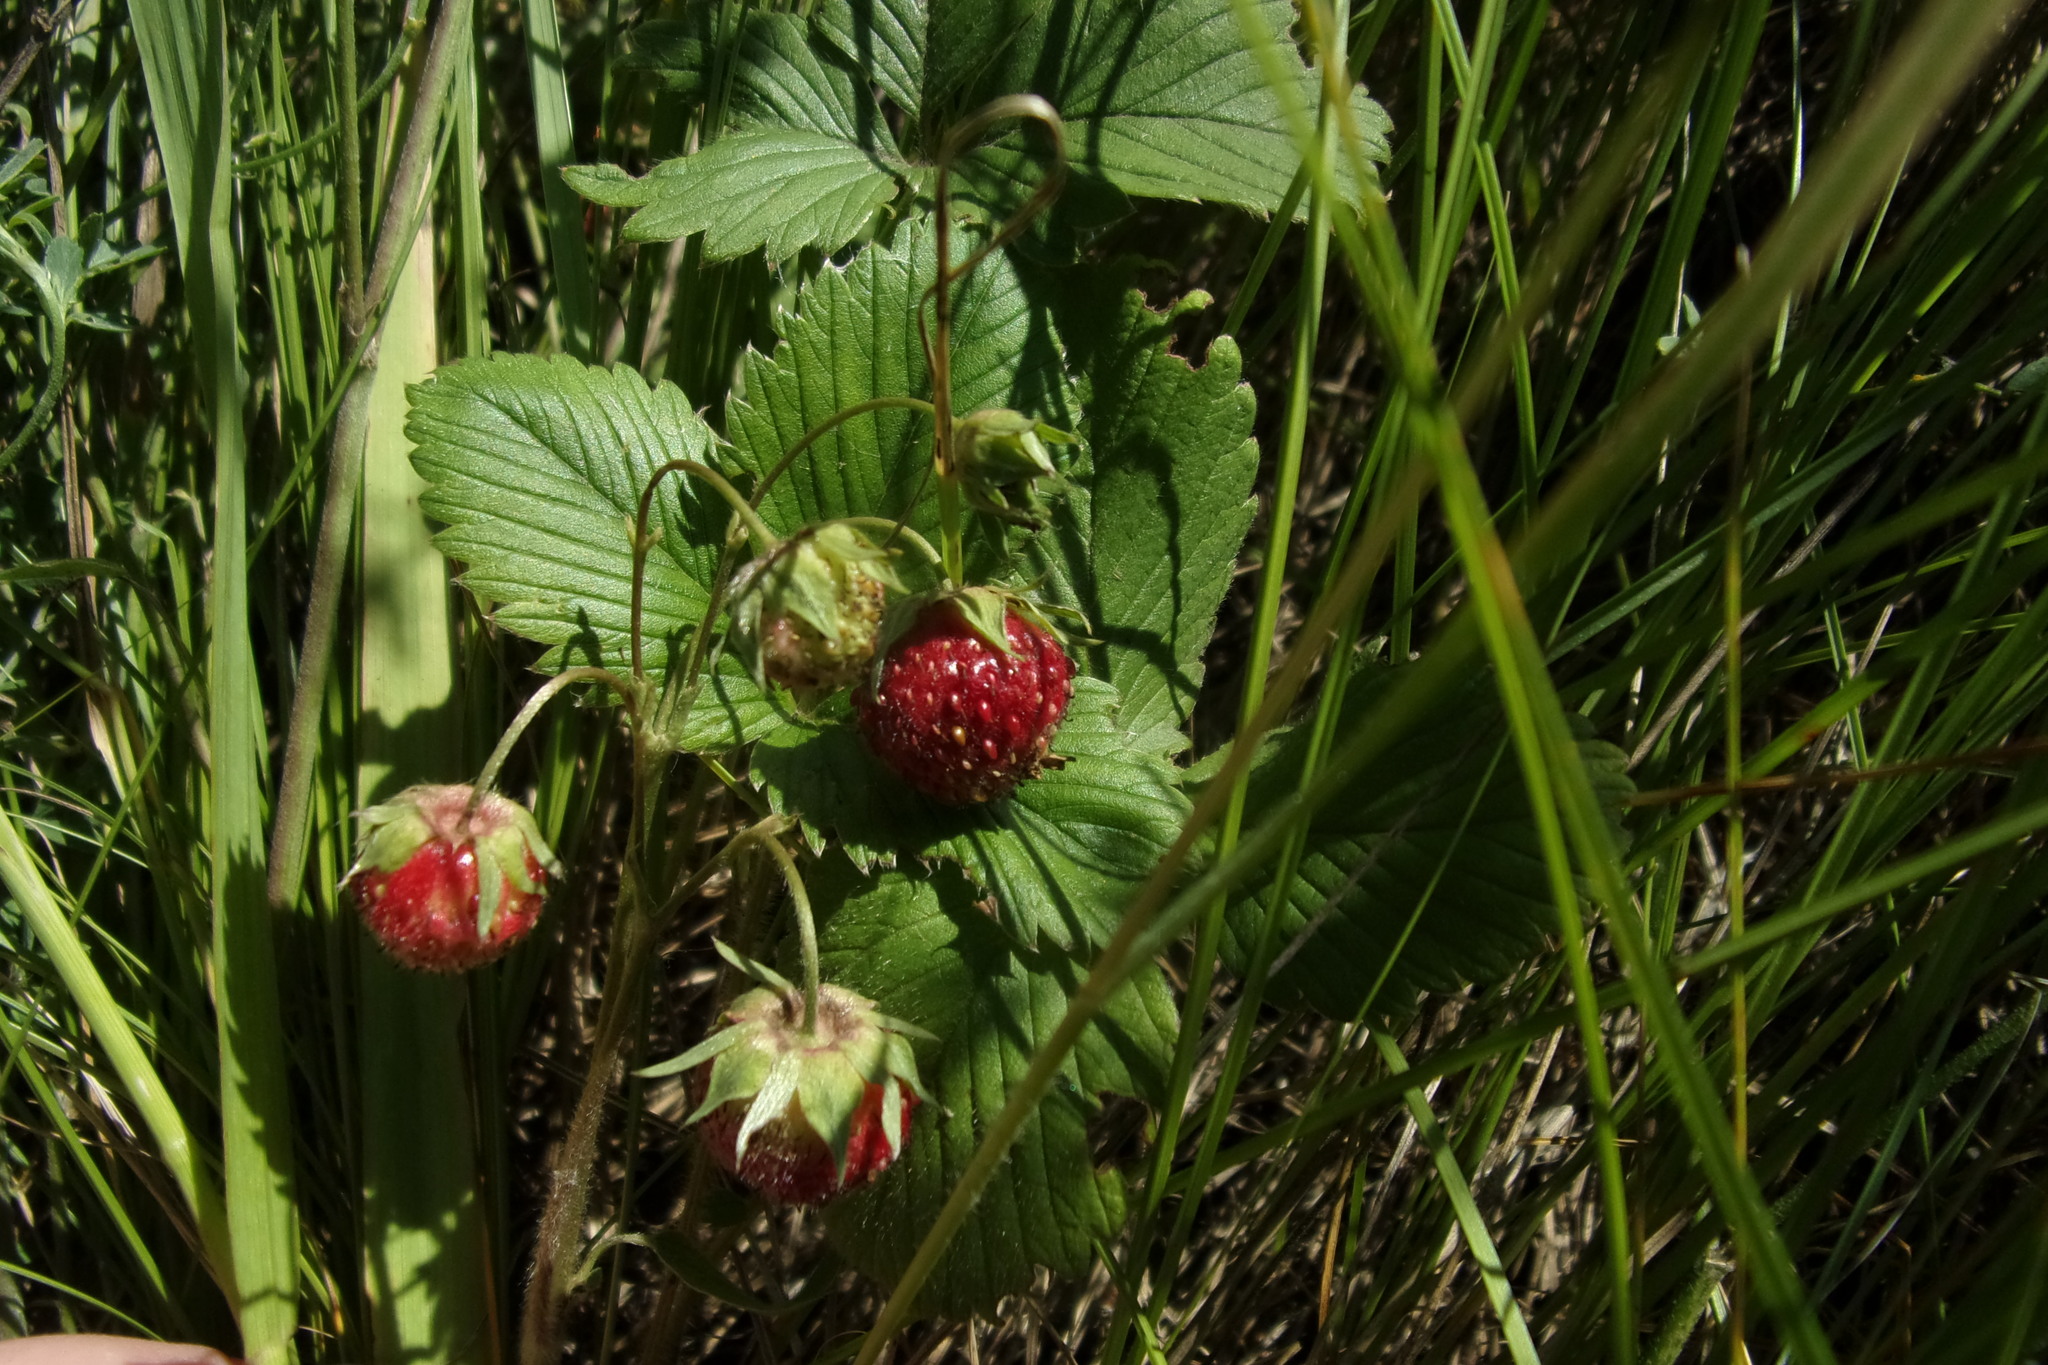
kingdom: Plantae
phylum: Tracheophyta
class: Magnoliopsida
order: Rosales
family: Rosaceae
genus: Fragaria
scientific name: Fragaria viridis
